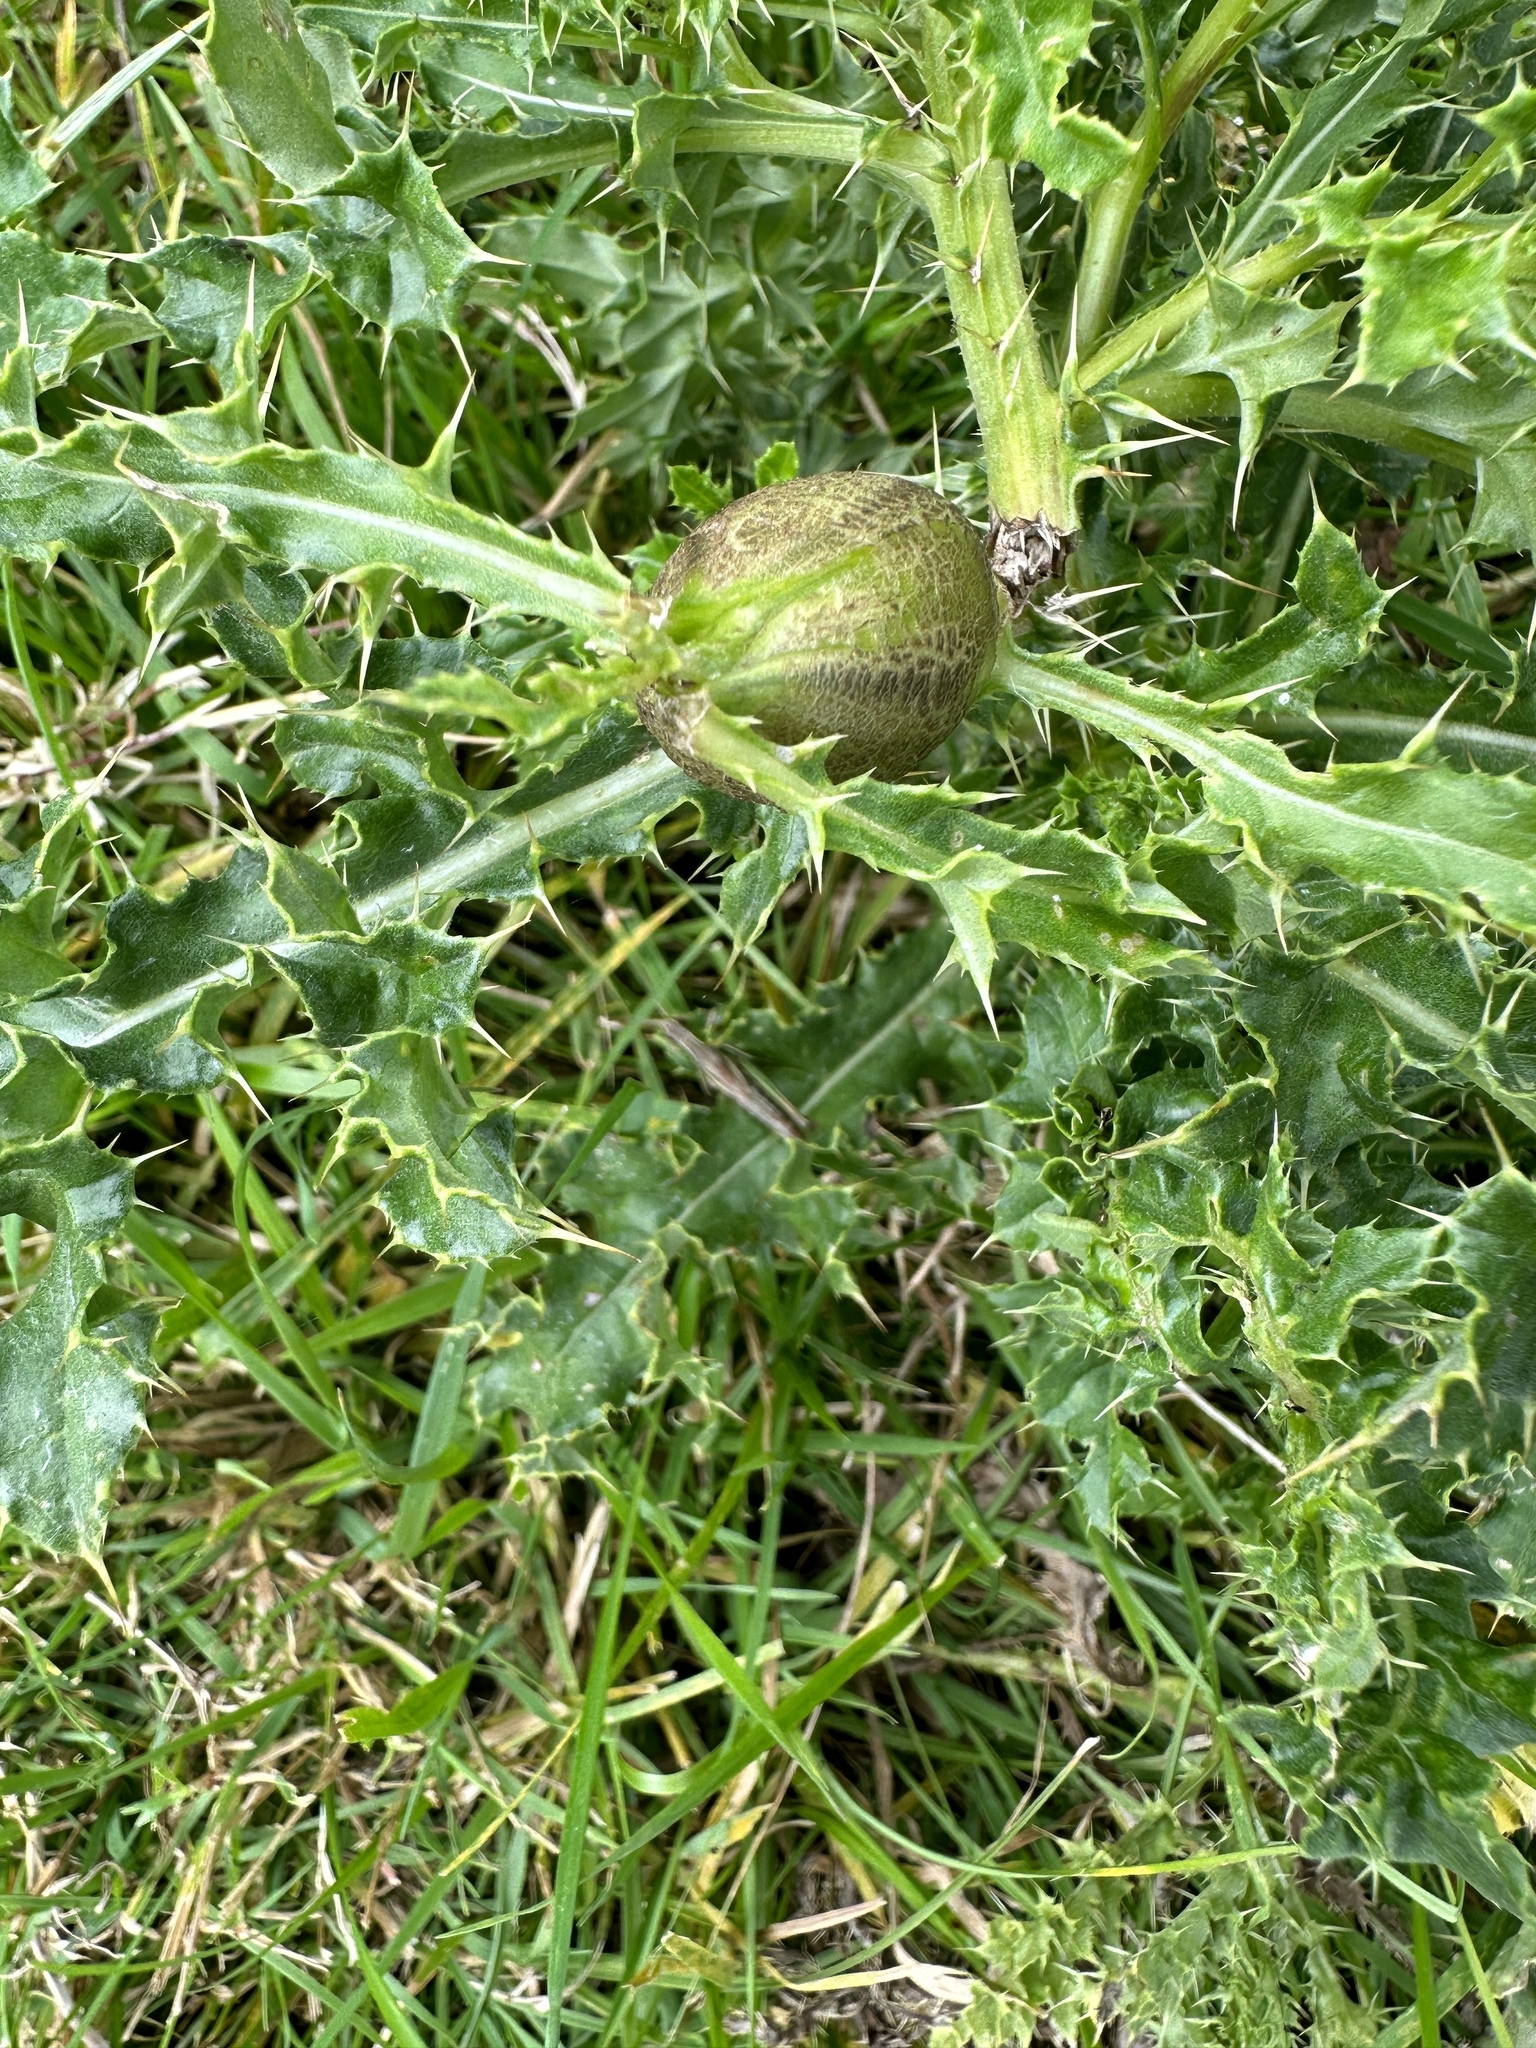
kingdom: Animalia
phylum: Arthropoda
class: Insecta
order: Diptera
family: Tephritidae
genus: Urophora
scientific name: Urophora cardui
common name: Fruit fly
